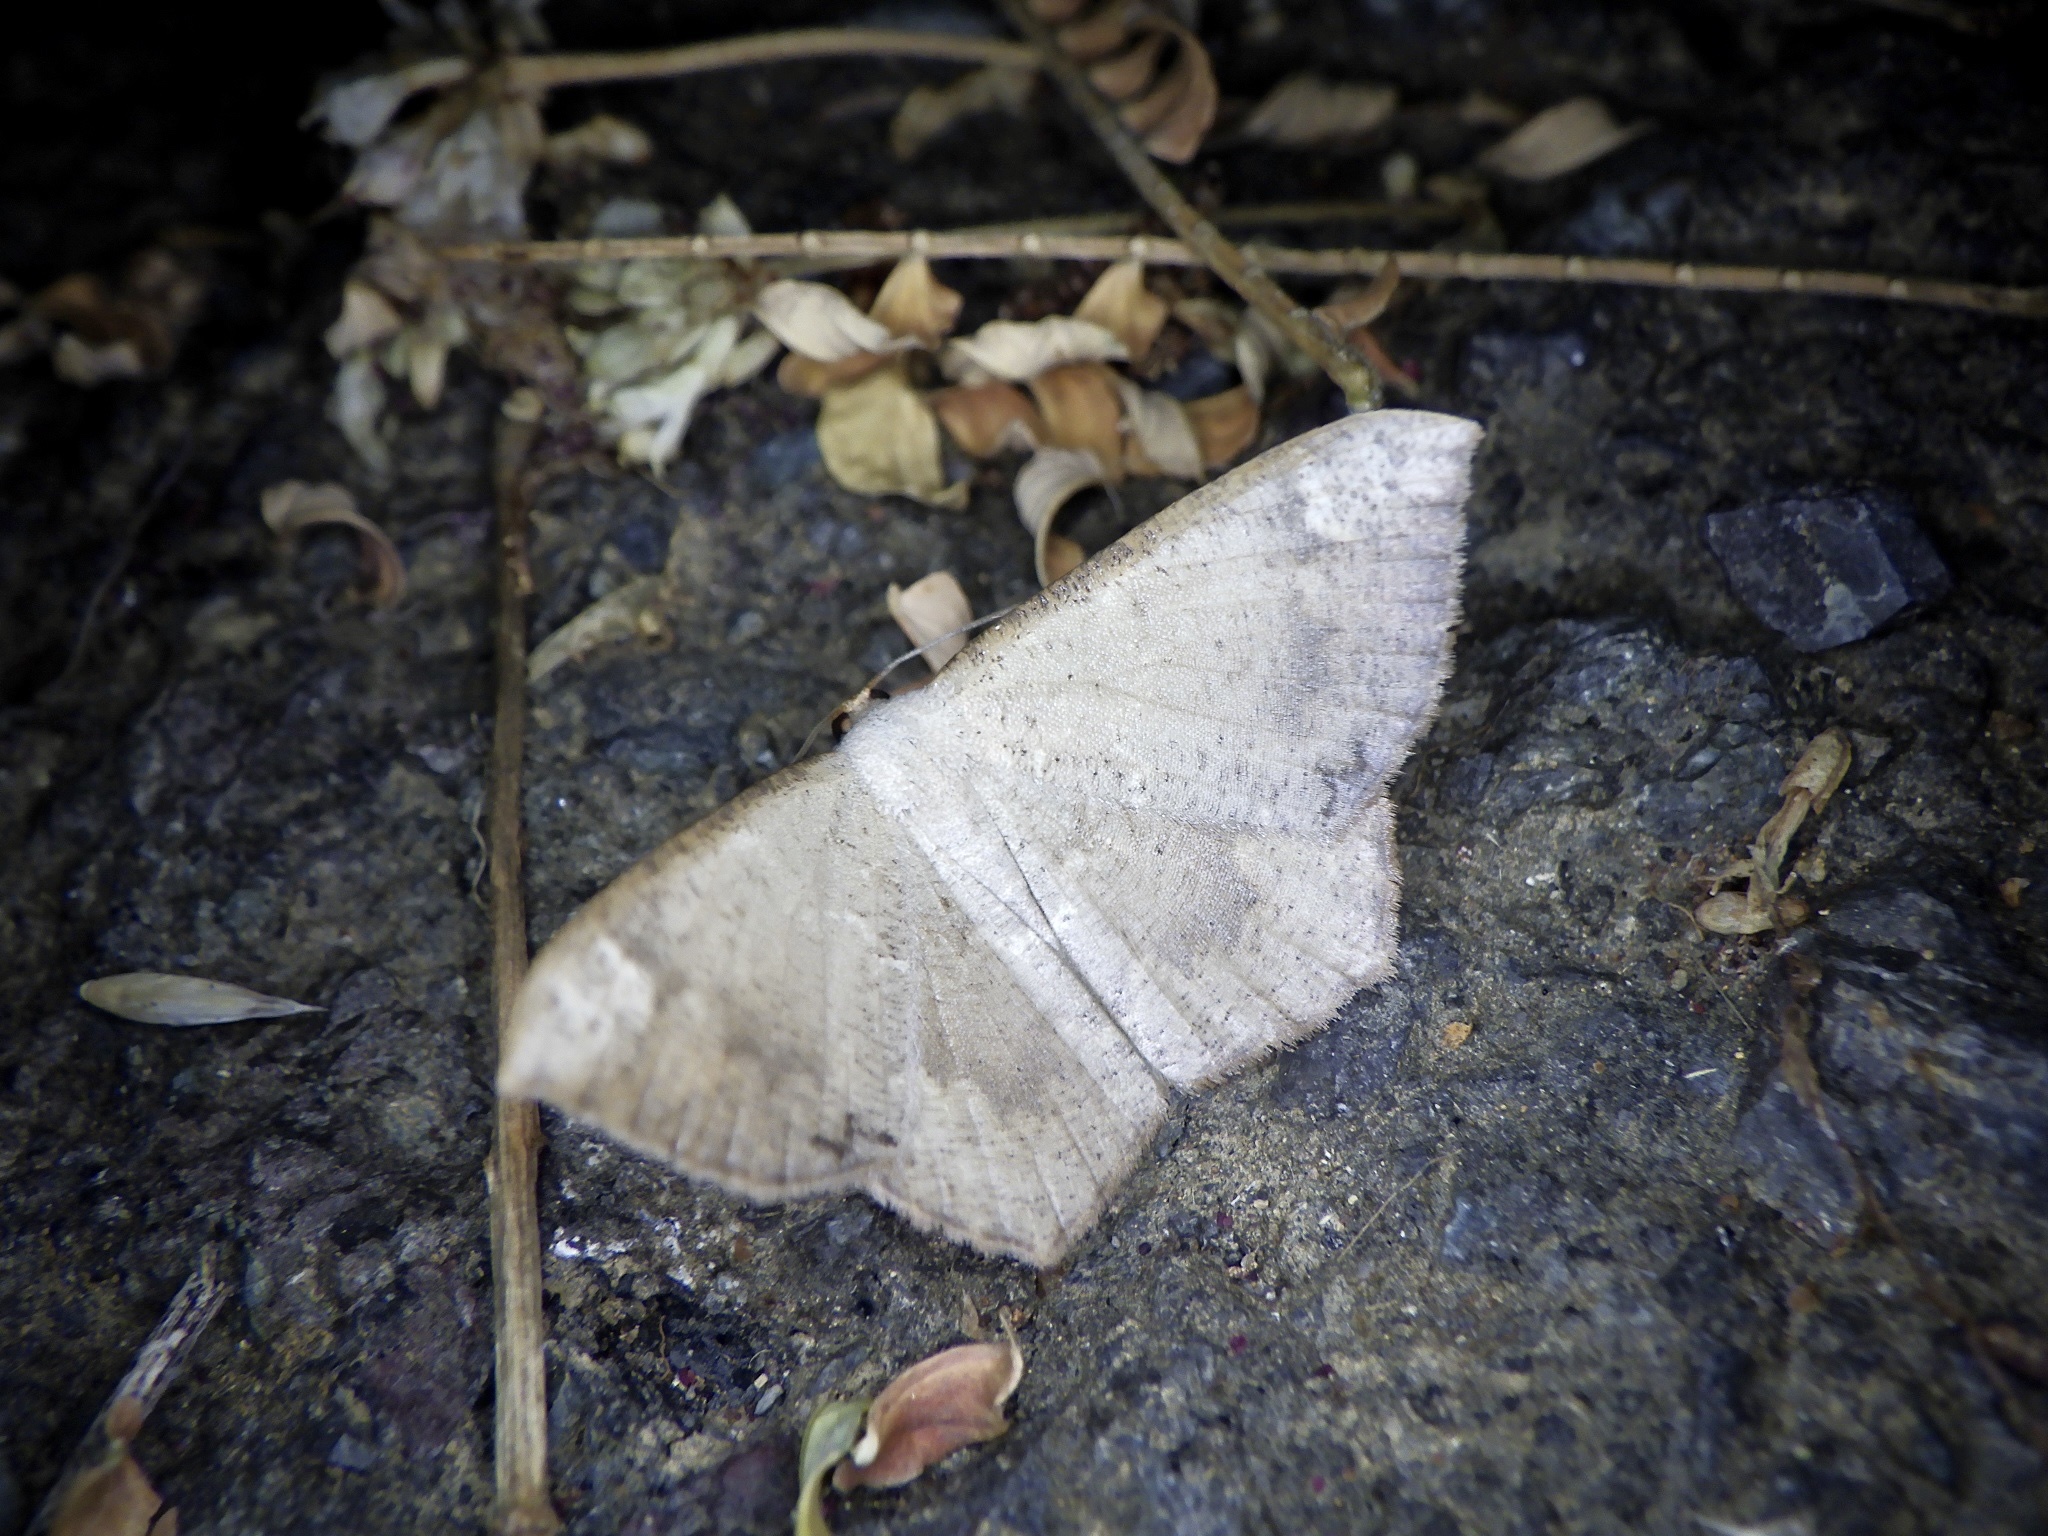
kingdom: Animalia
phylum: Arthropoda
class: Insecta
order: Lepidoptera
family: Geometridae
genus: Peratostega
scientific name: Peratostega deletaria
